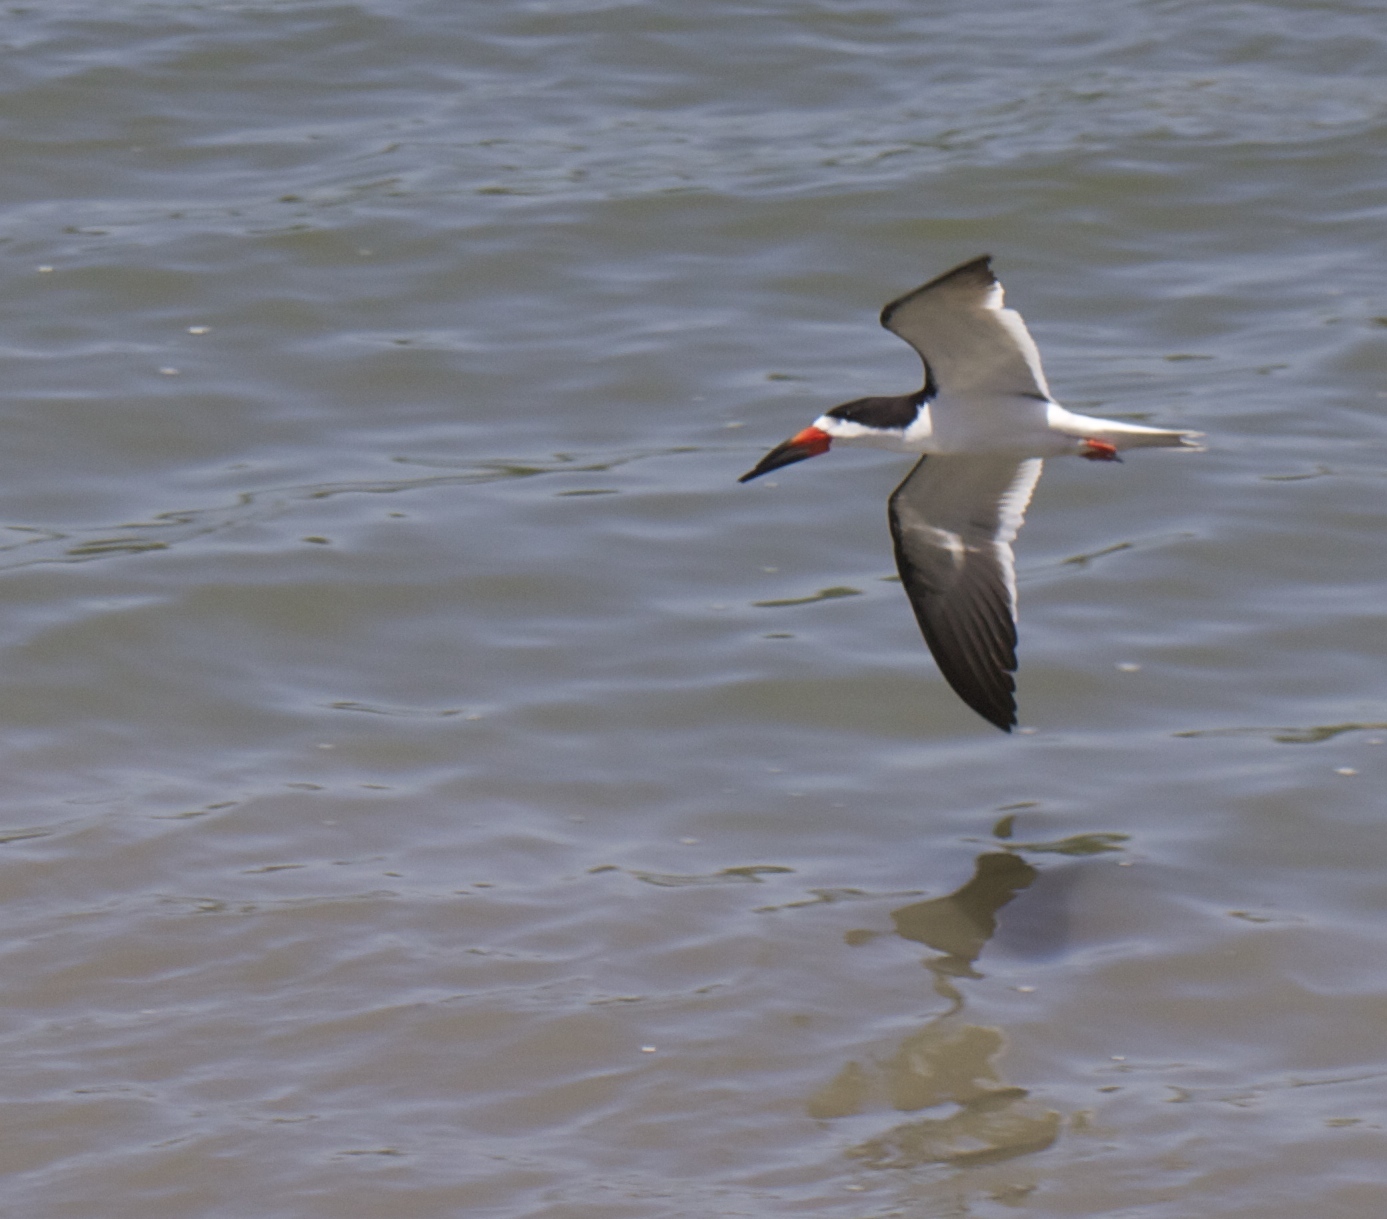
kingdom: Animalia
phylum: Chordata
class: Aves
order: Charadriiformes
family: Laridae
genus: Rynchops
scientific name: Rynchops niger
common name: Black skimmer
